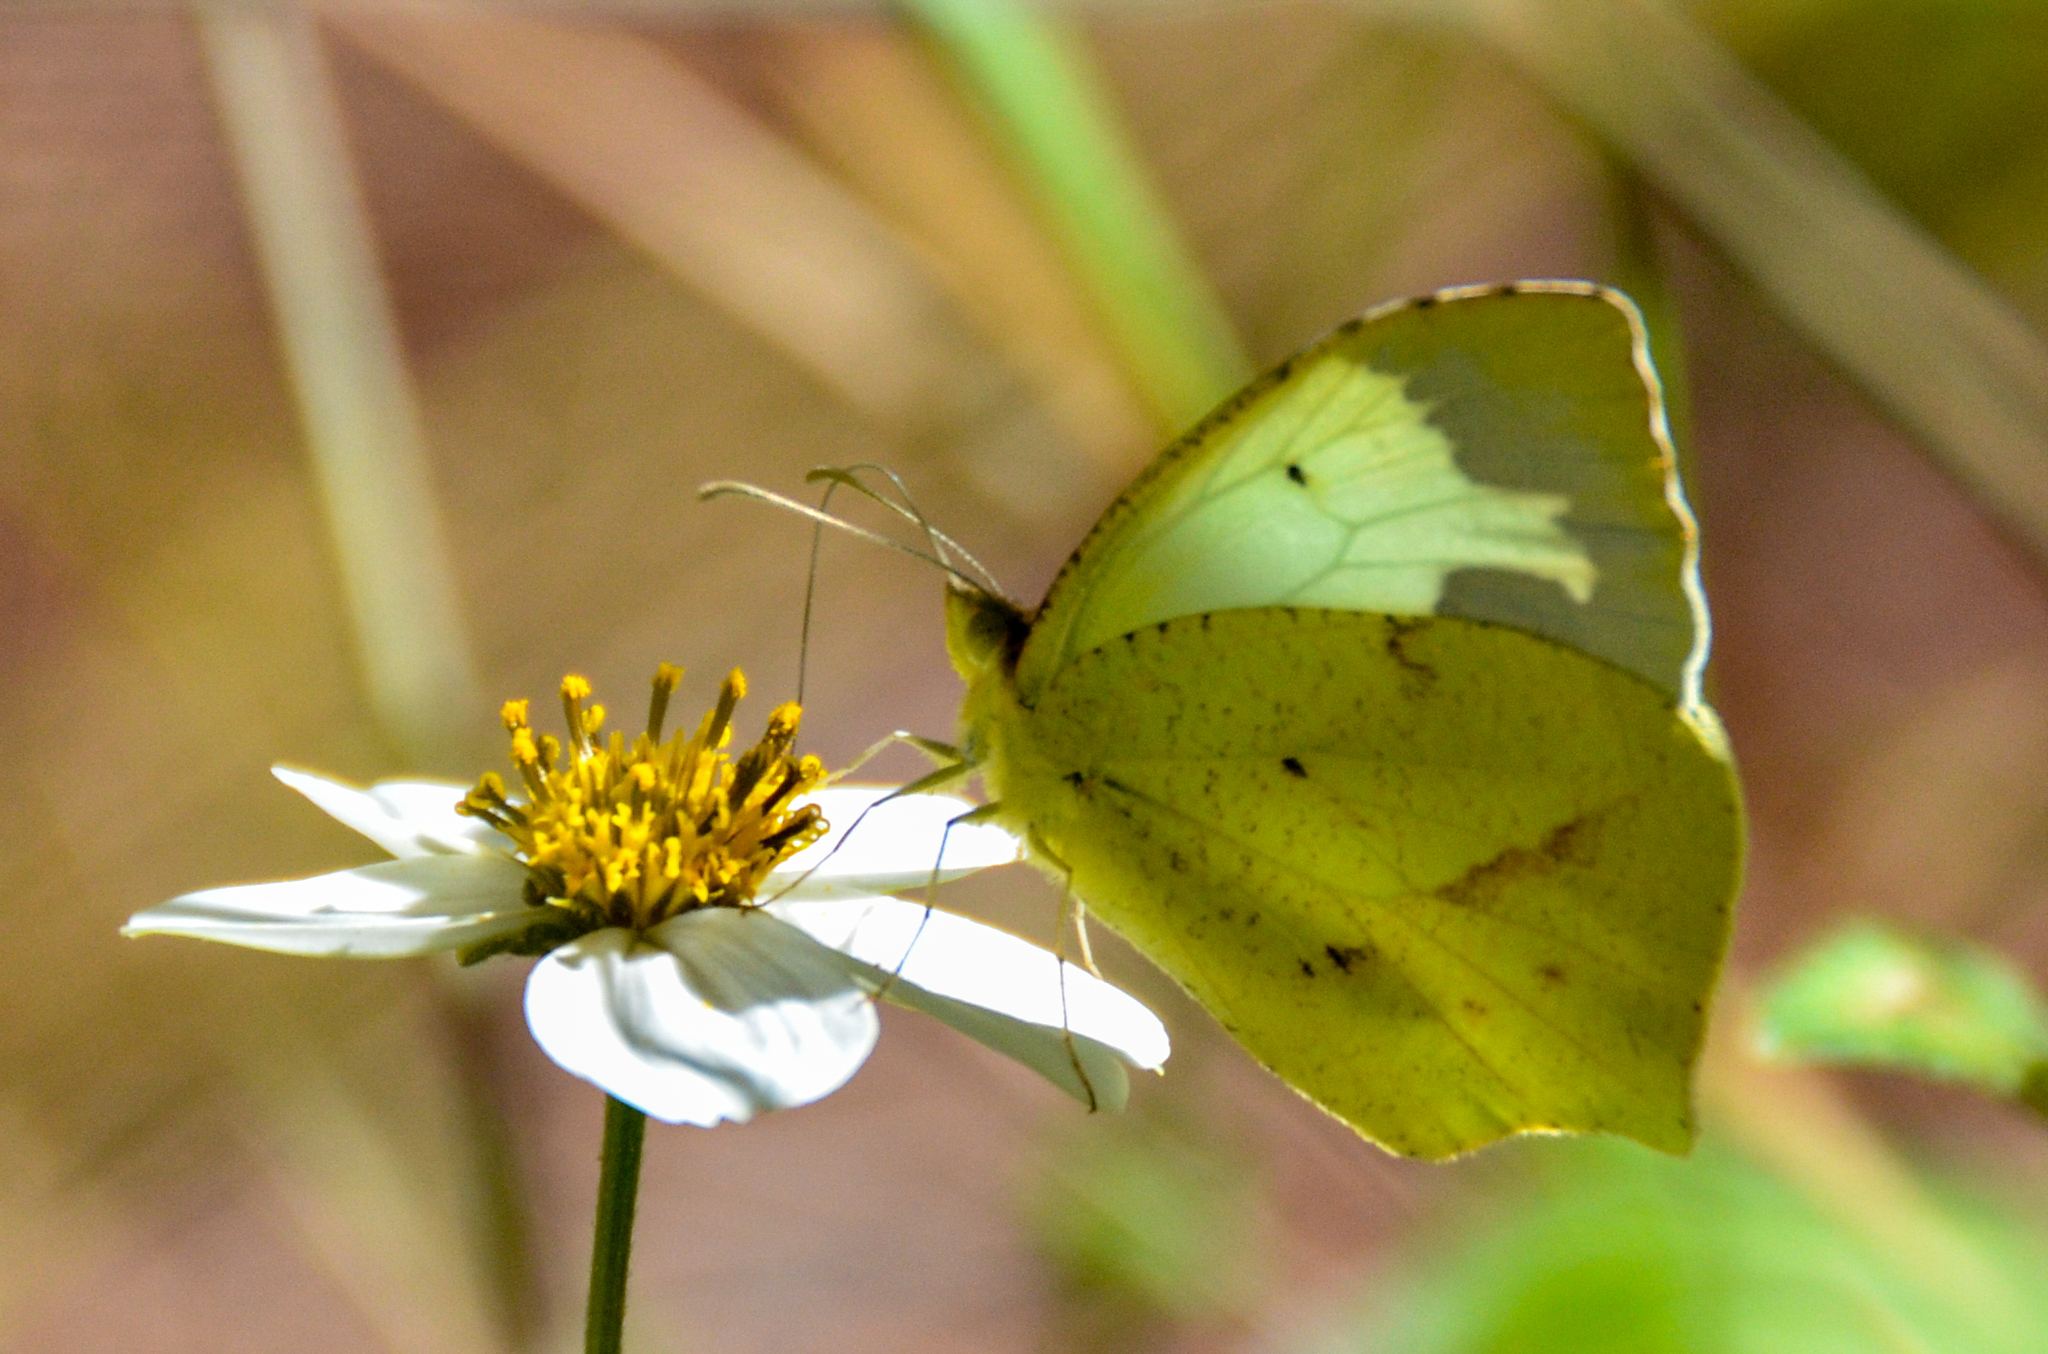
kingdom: Animalia
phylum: Arthropoda
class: Insecta
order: Lepidoptera
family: Pieridae
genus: Abaeis
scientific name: Abaeis mexicana
